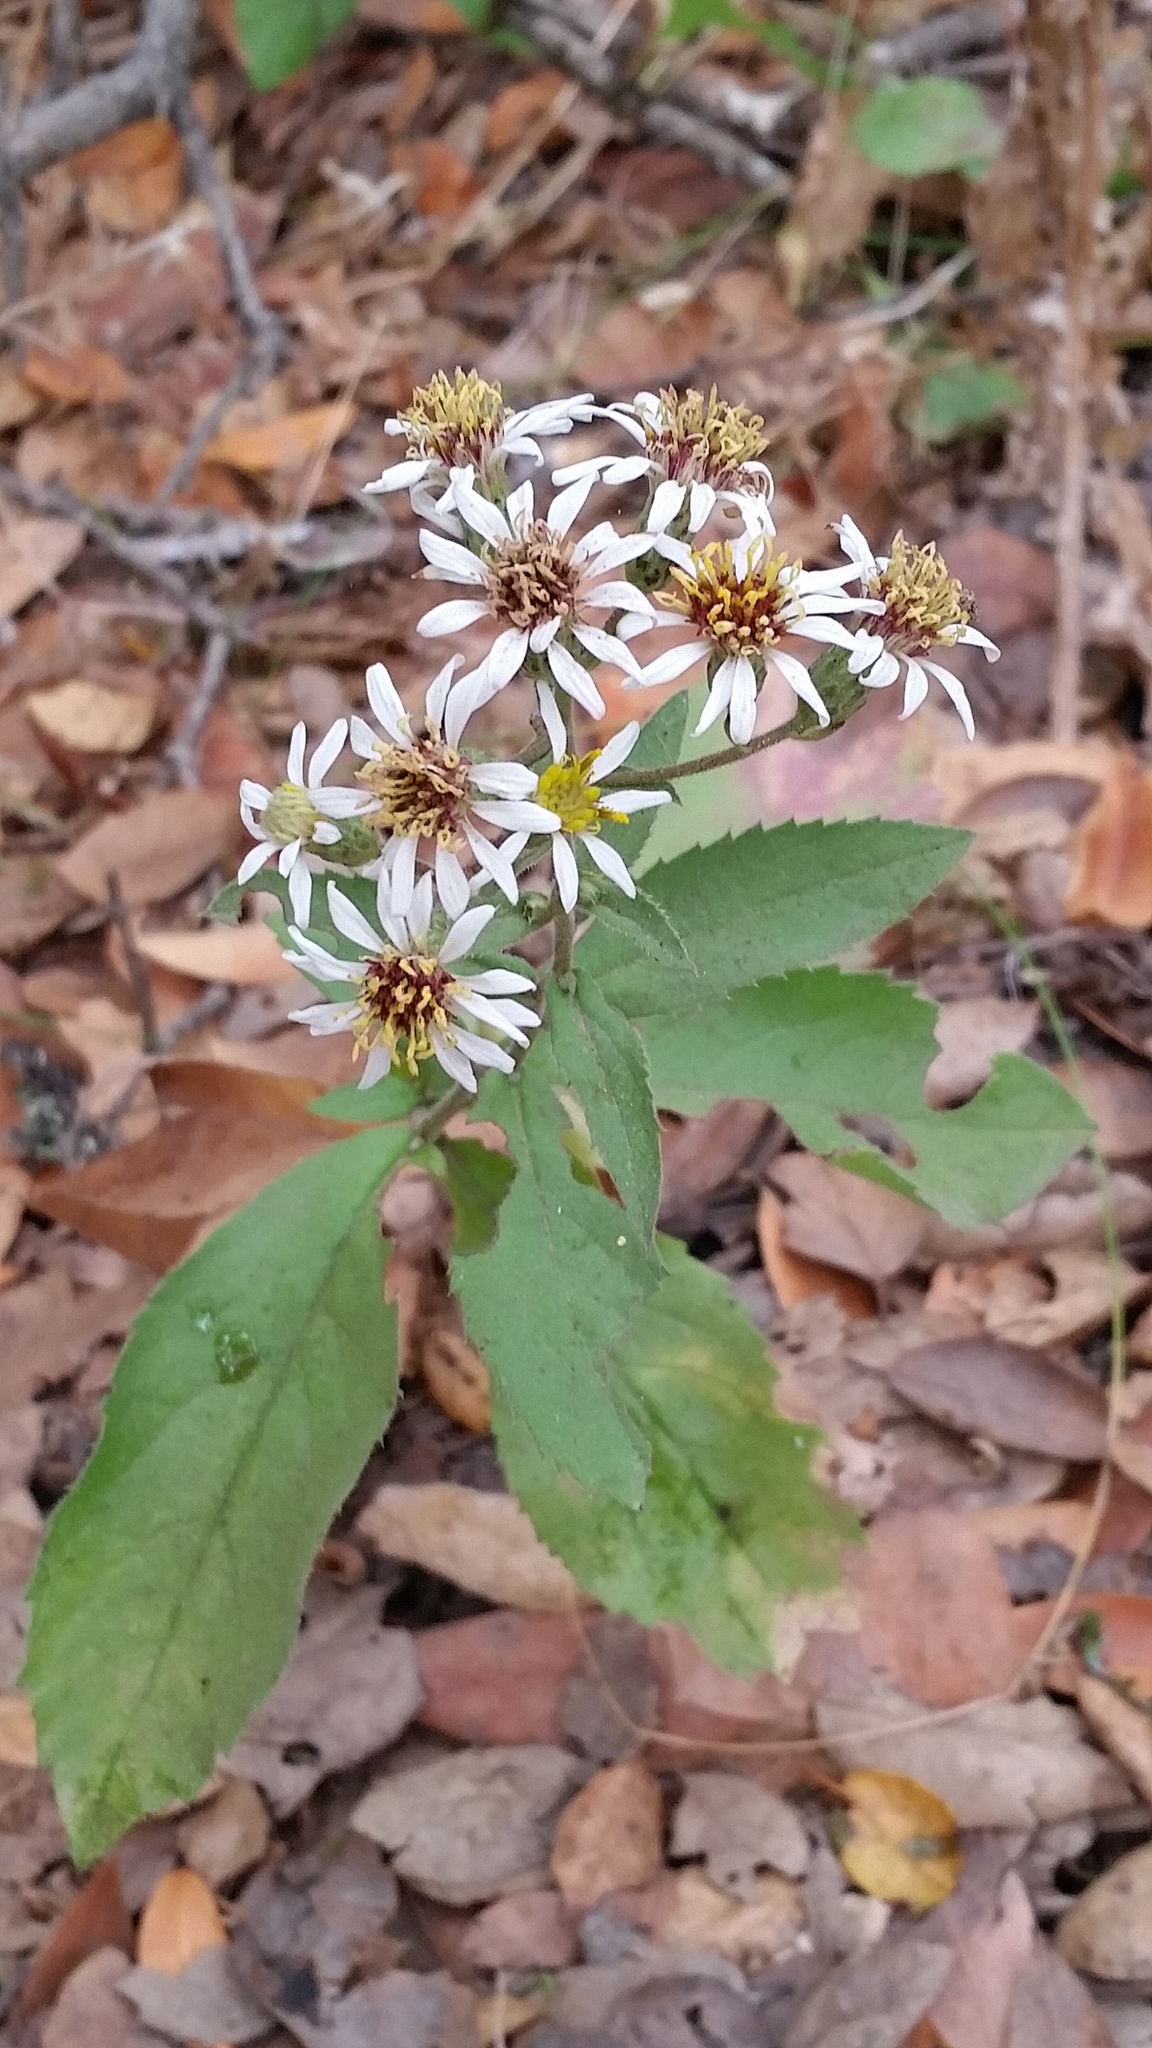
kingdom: Plantae
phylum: Tracheophyta
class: Magnoliopsida
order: Asterales
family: Asteraceae
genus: Eurybia
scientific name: Eurybia radulina
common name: Rough-leaved aster
